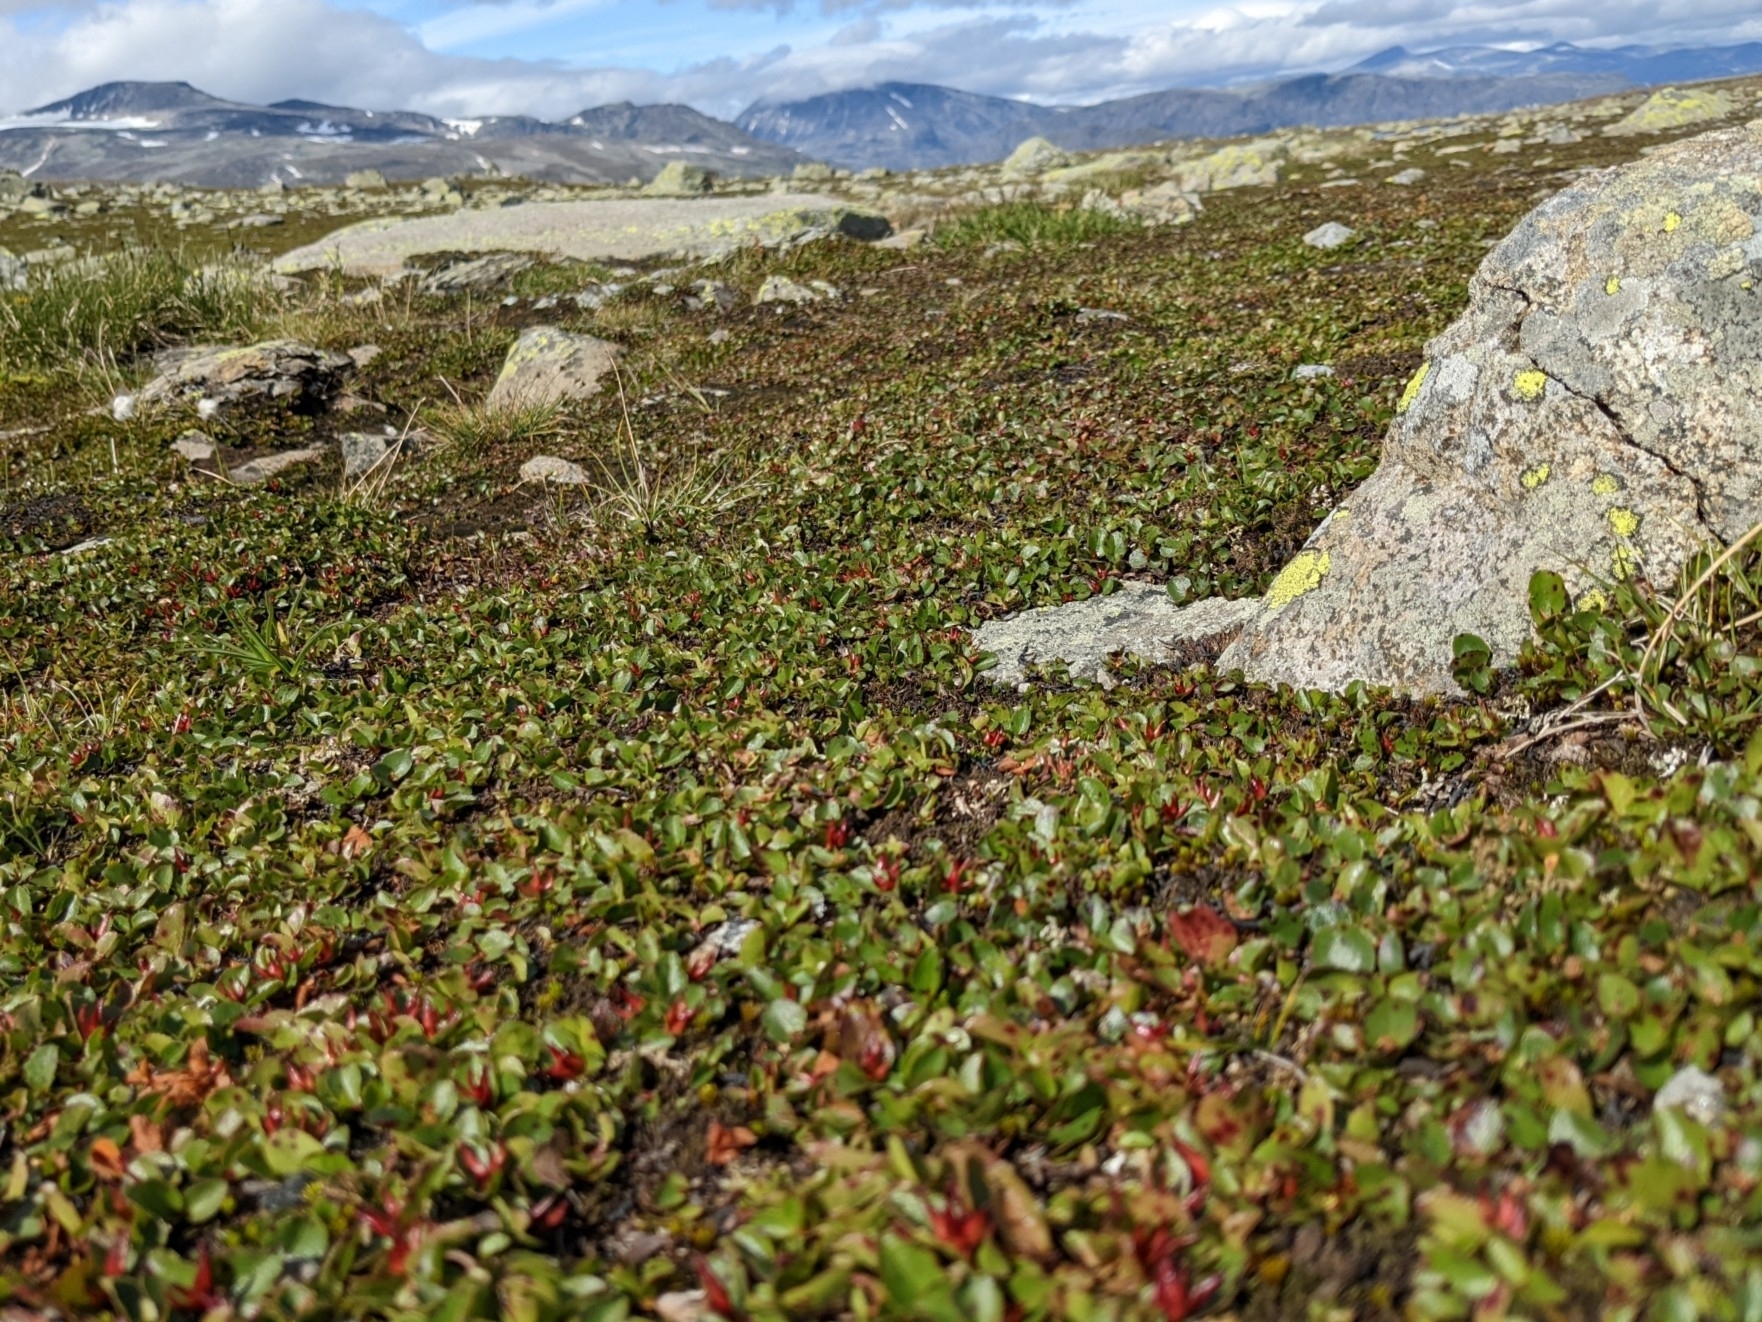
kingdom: Plantae
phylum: Tracheophyta
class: Magnoliopsida
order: Malpighiales
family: Salicaceae
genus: Salix
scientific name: Salix herbacea
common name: Dwarf willow
